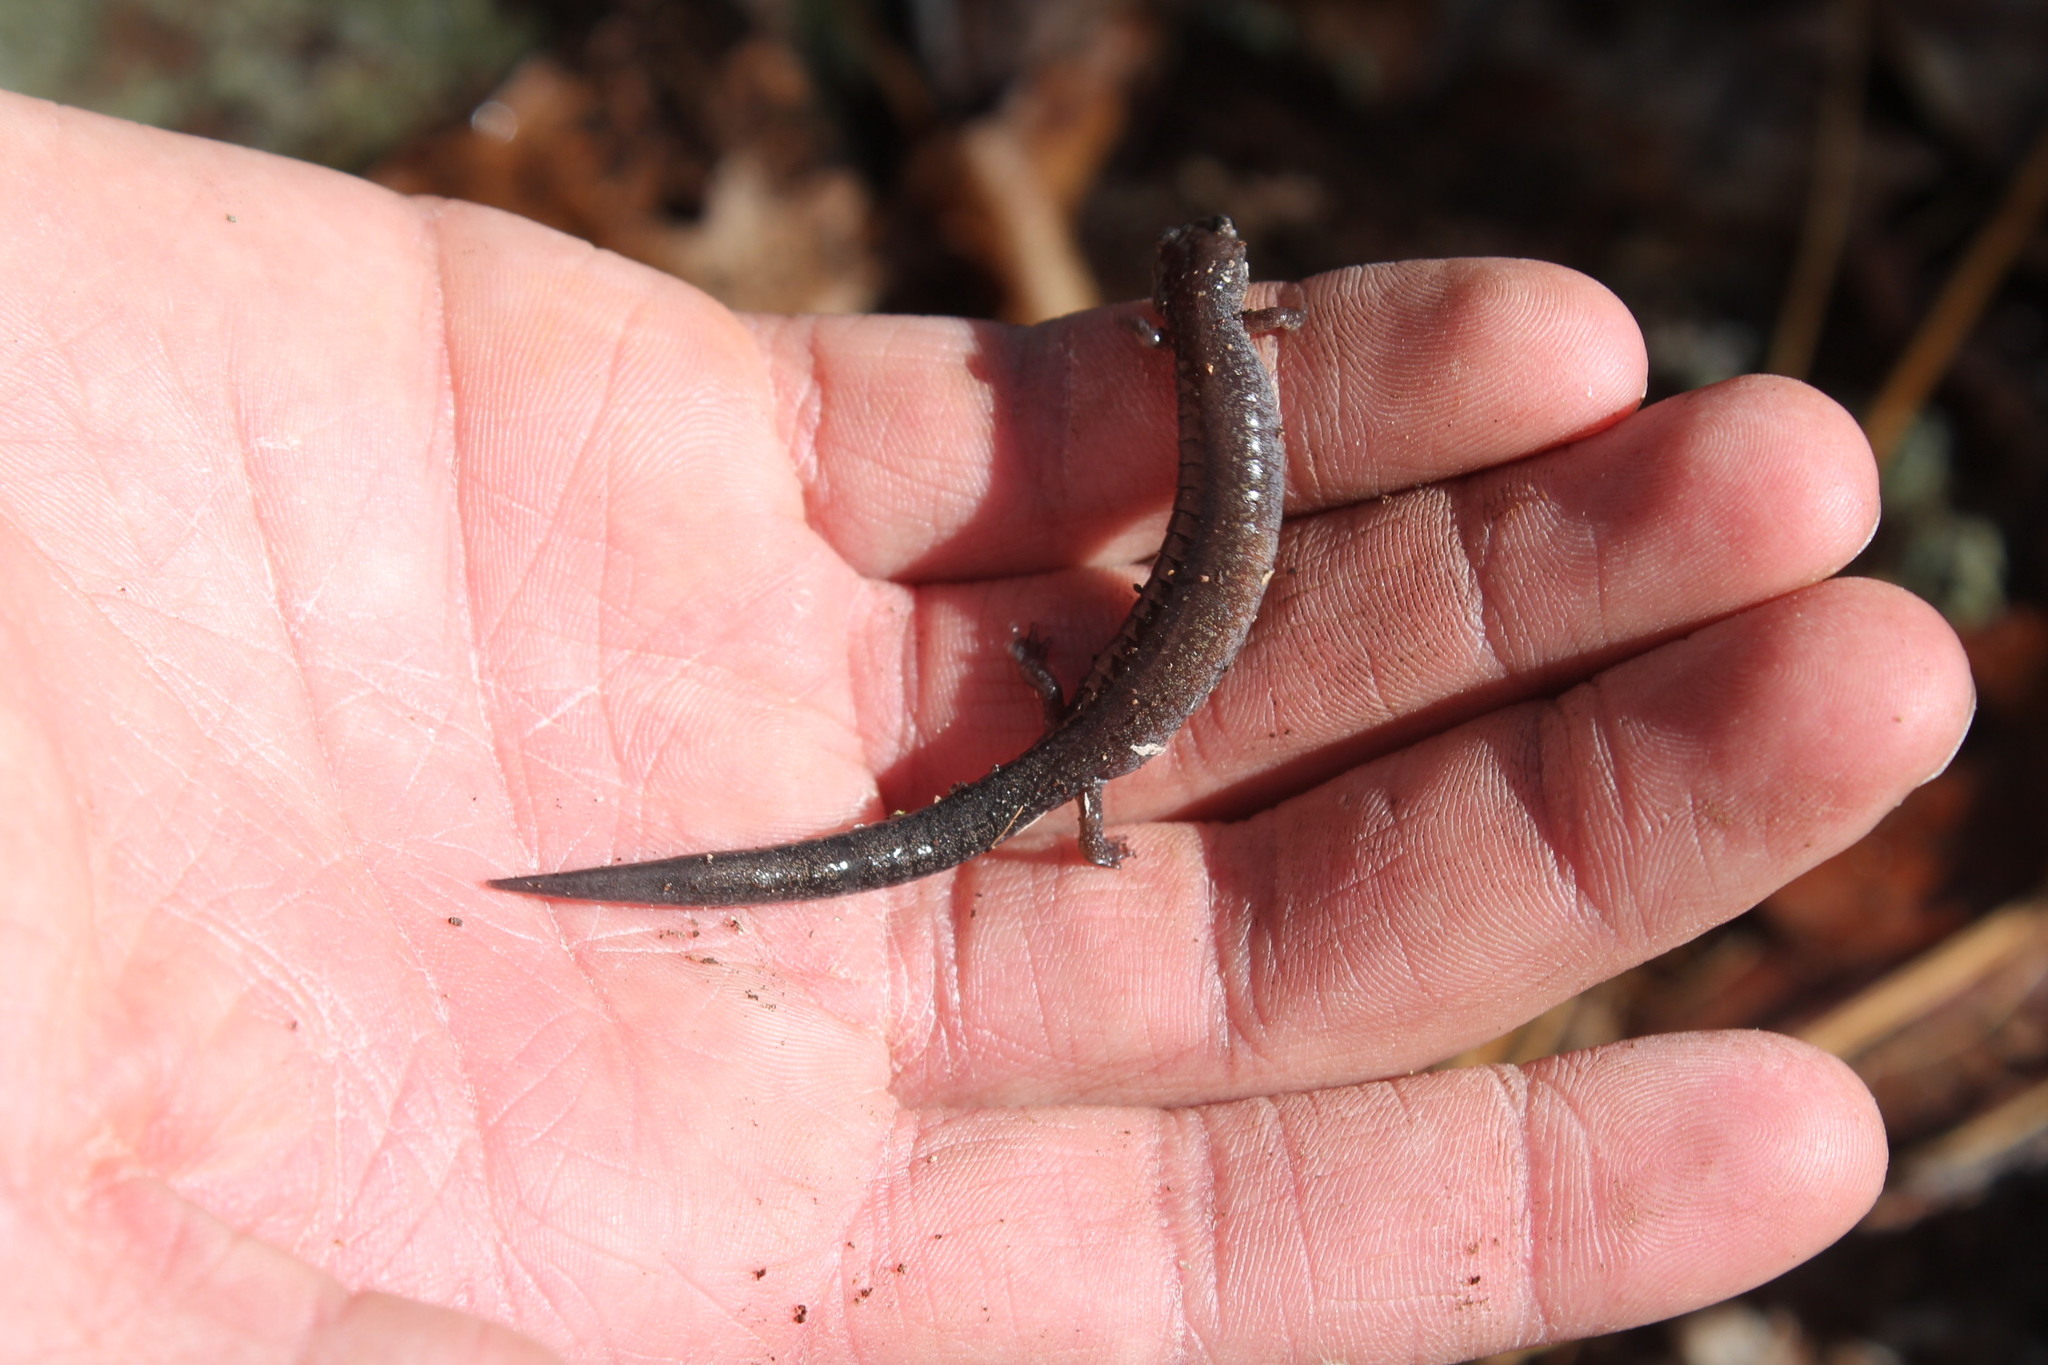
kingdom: Animalia
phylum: Chordata
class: Amphibia
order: Caudata
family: Plethodontidae
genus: Plethodon
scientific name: Plethodon cinereus
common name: Redback salamander
